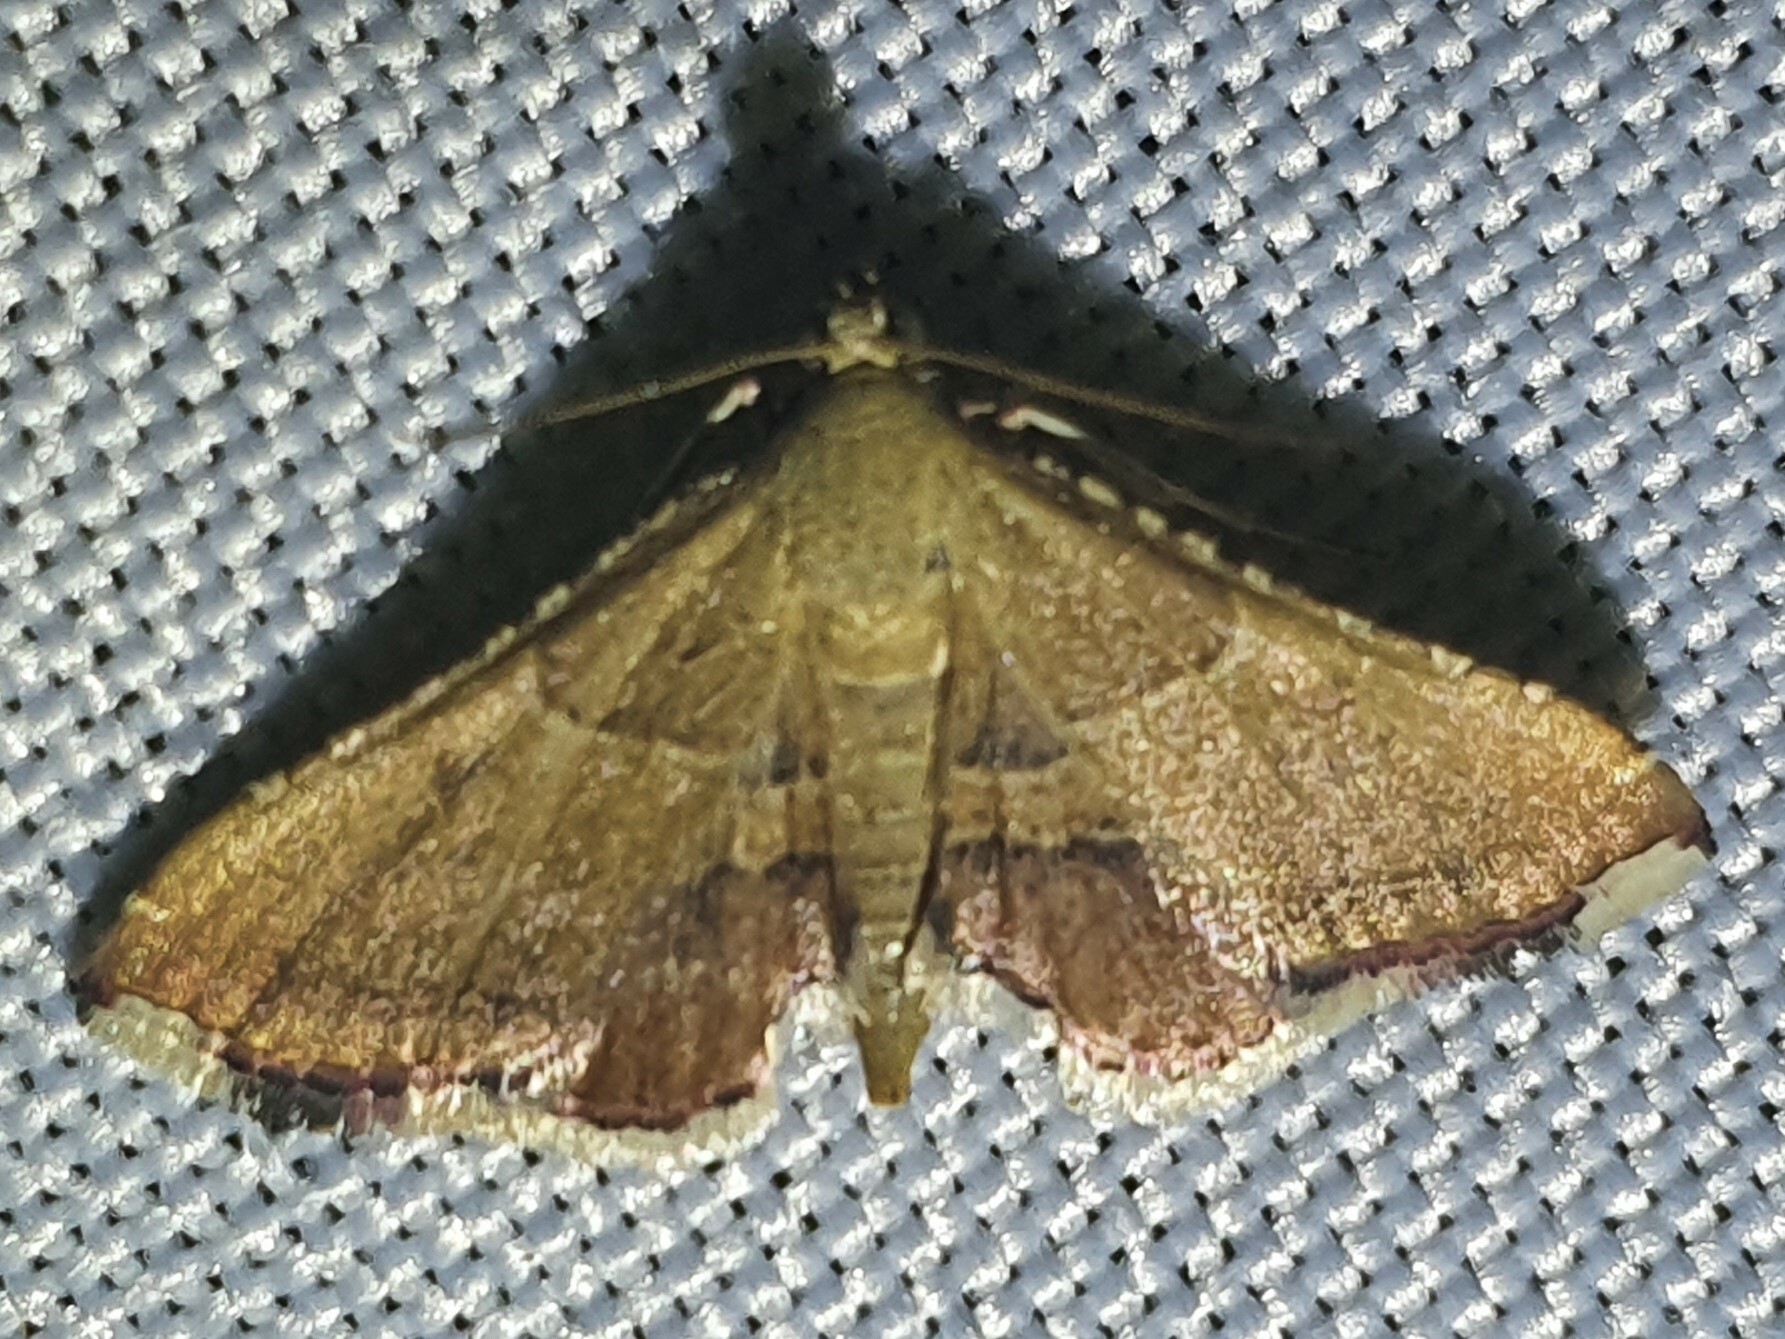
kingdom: Animalia
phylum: Arthropoda
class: Insecta
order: Lepidoptera
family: Pyralidae
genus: Endotricha
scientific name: Endotricha flammealis
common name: Rosy tabby
